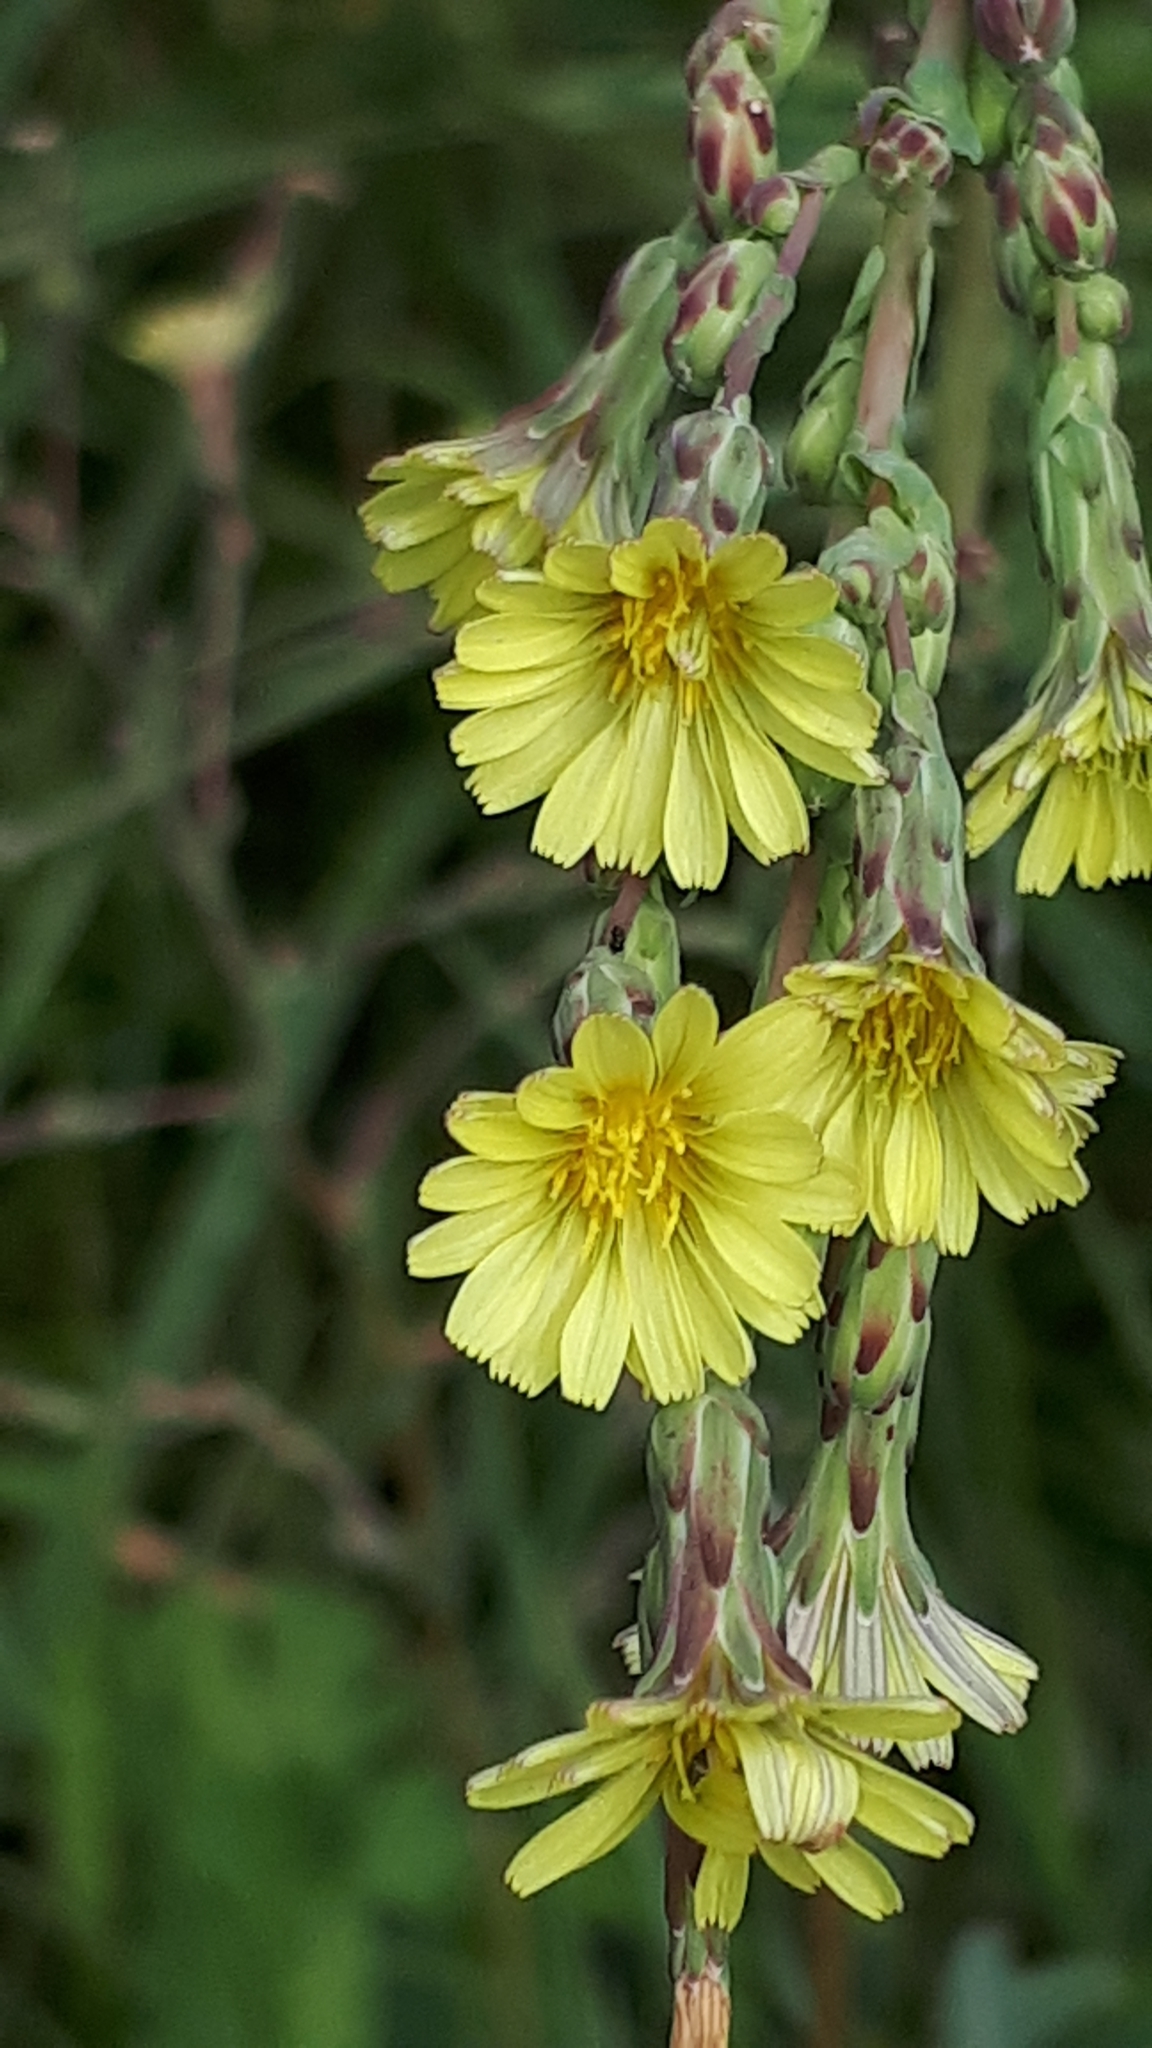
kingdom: Plantae
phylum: Tracheophyta
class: Magnoliopsida
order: Asterales
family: Asteraceae
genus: Lactuca
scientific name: Lactuca serriola
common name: Prickly lettuce
